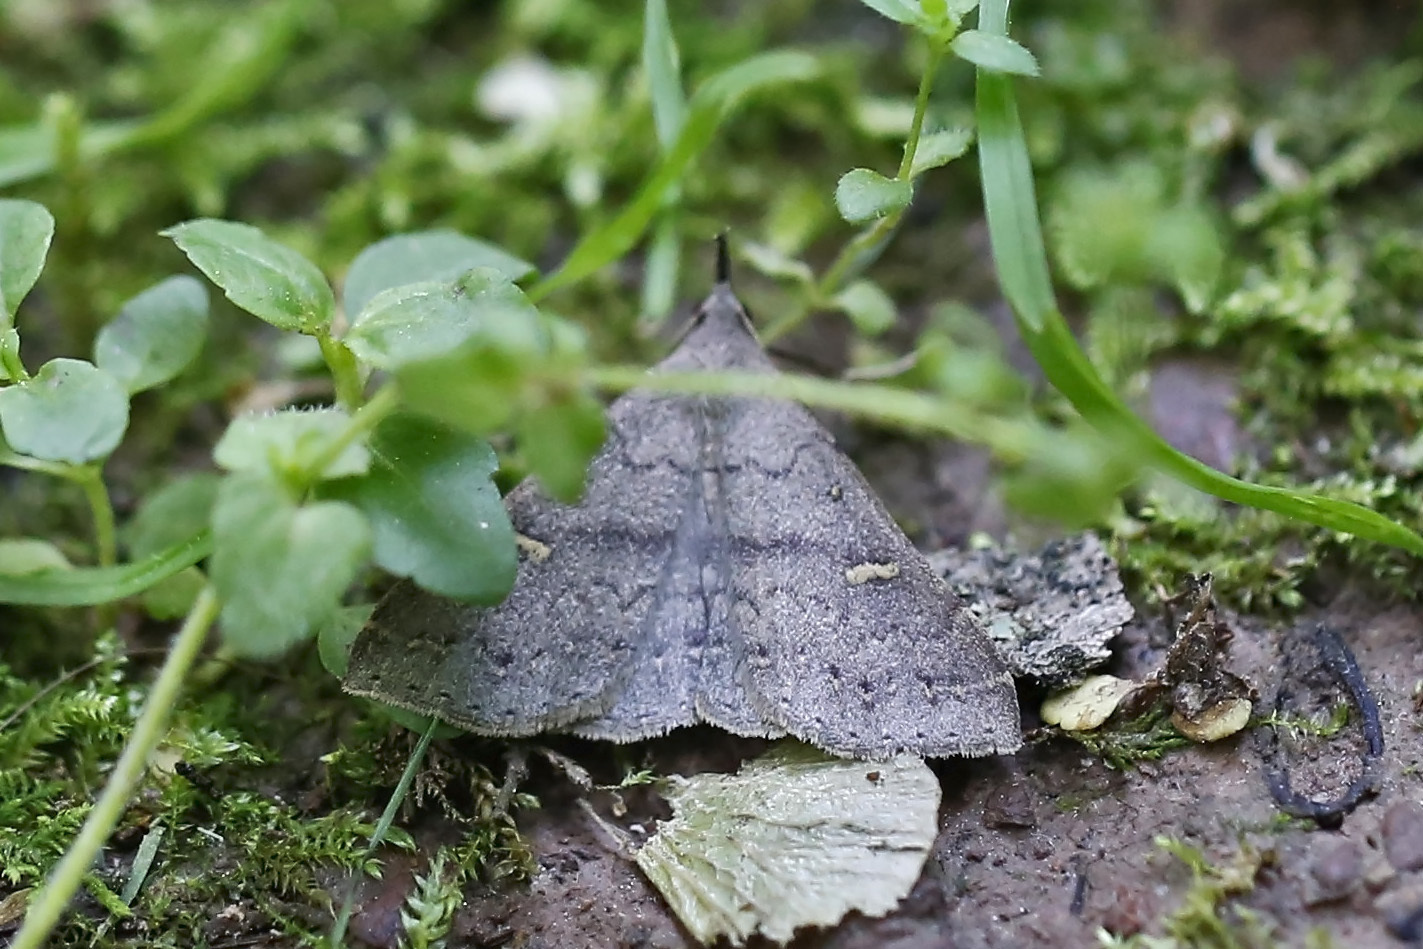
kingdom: Animalia
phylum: Arthropoda
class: Insecta
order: Lepidoptera
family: Erebidae
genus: Renia
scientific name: Renia adspergillus
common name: Speckled renia moth
